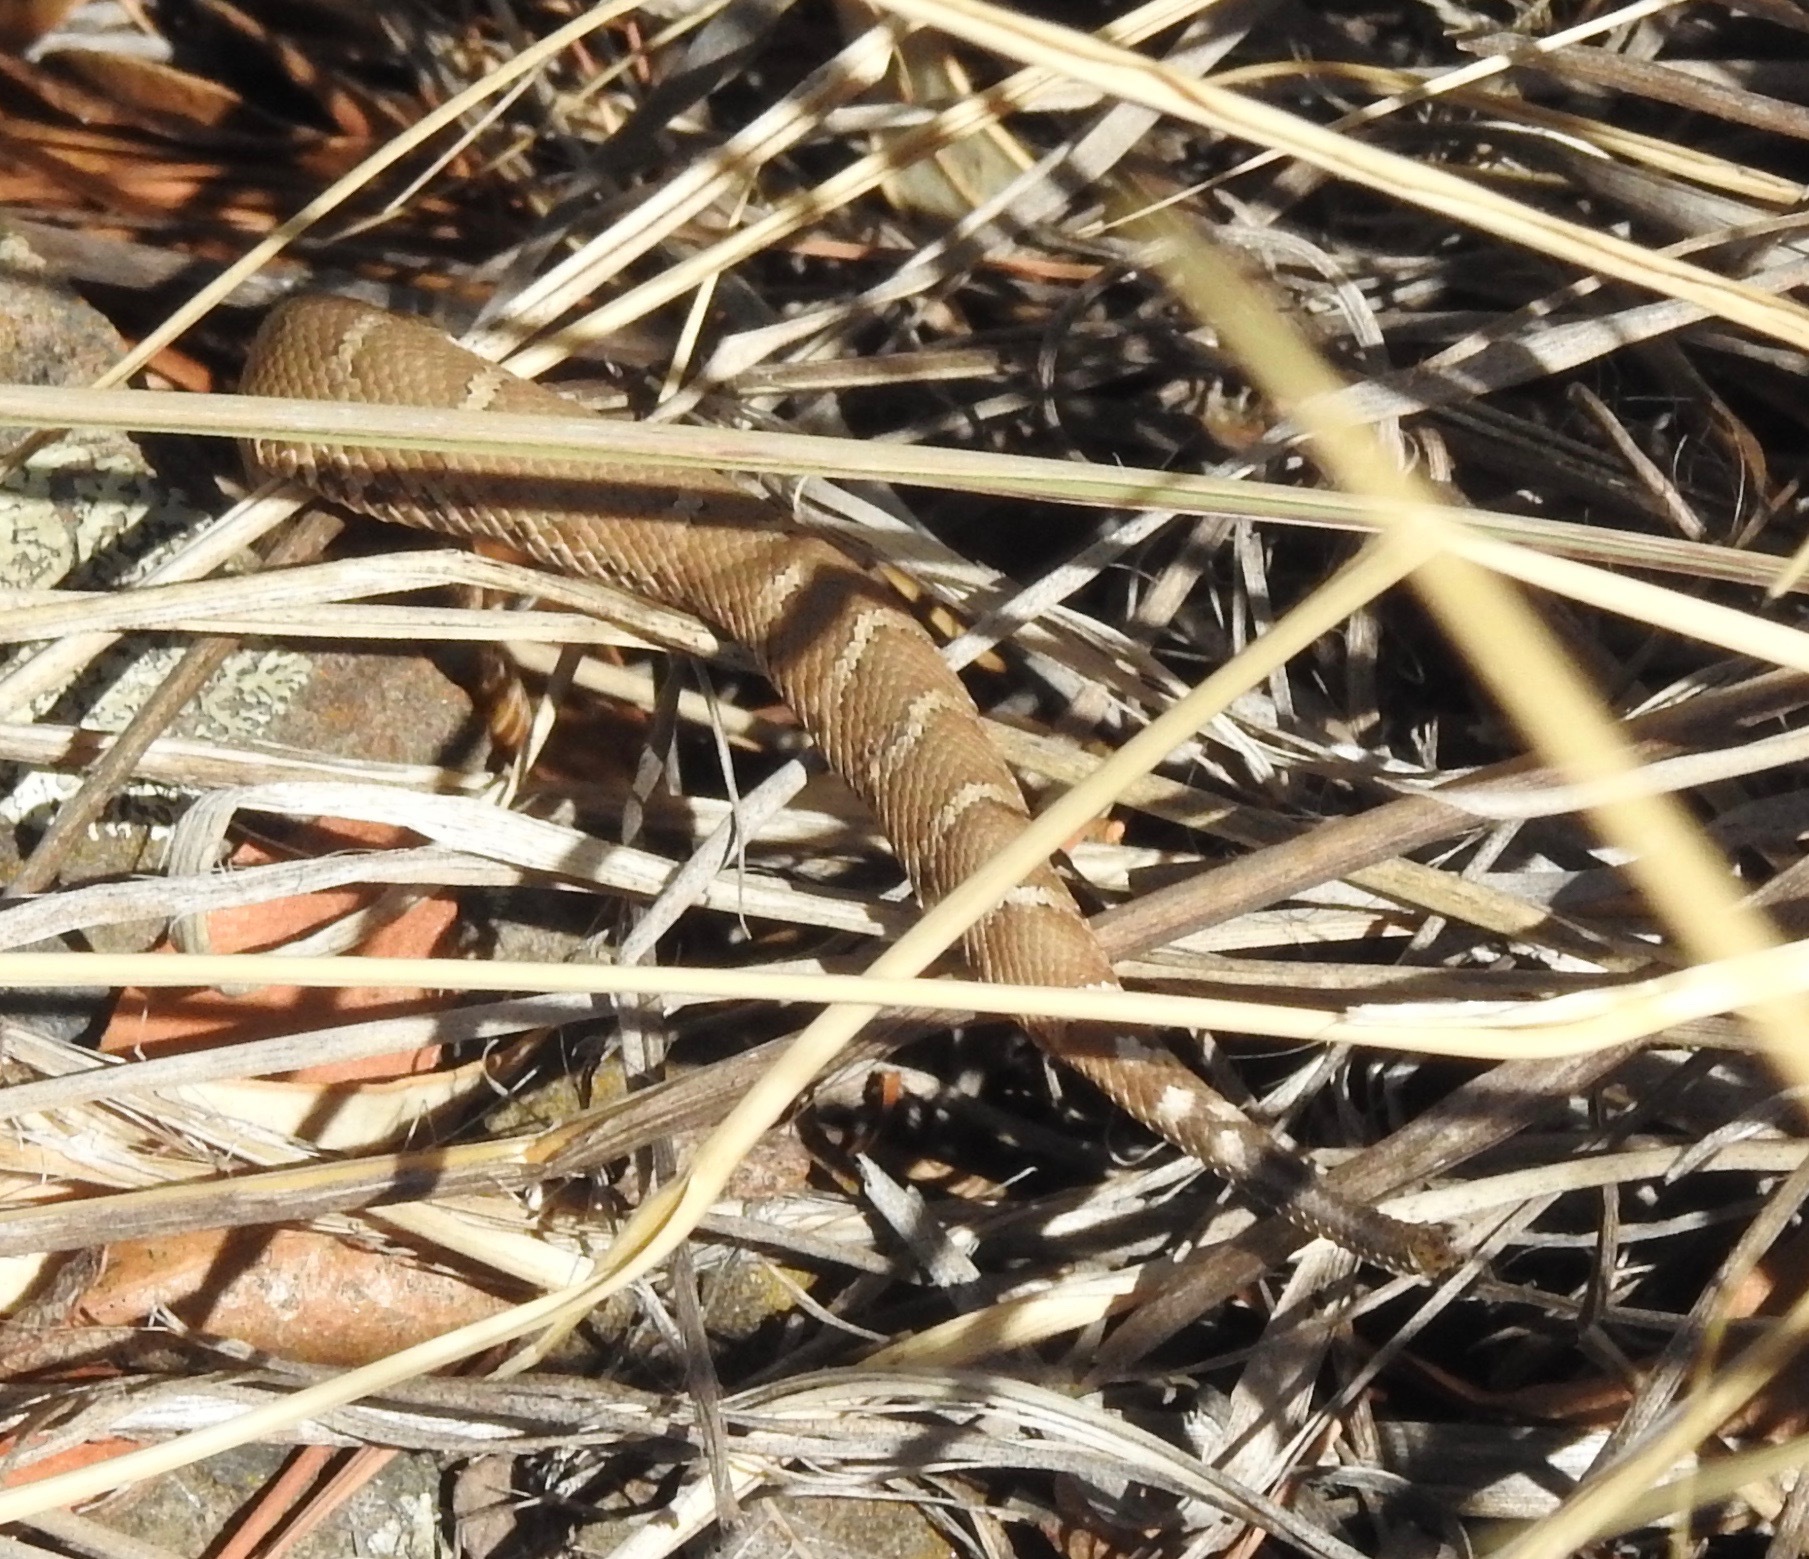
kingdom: Animalia
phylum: Chordata
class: Squamata
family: Viperidae
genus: Crotalus
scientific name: Crotalus willardi
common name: Willardi
